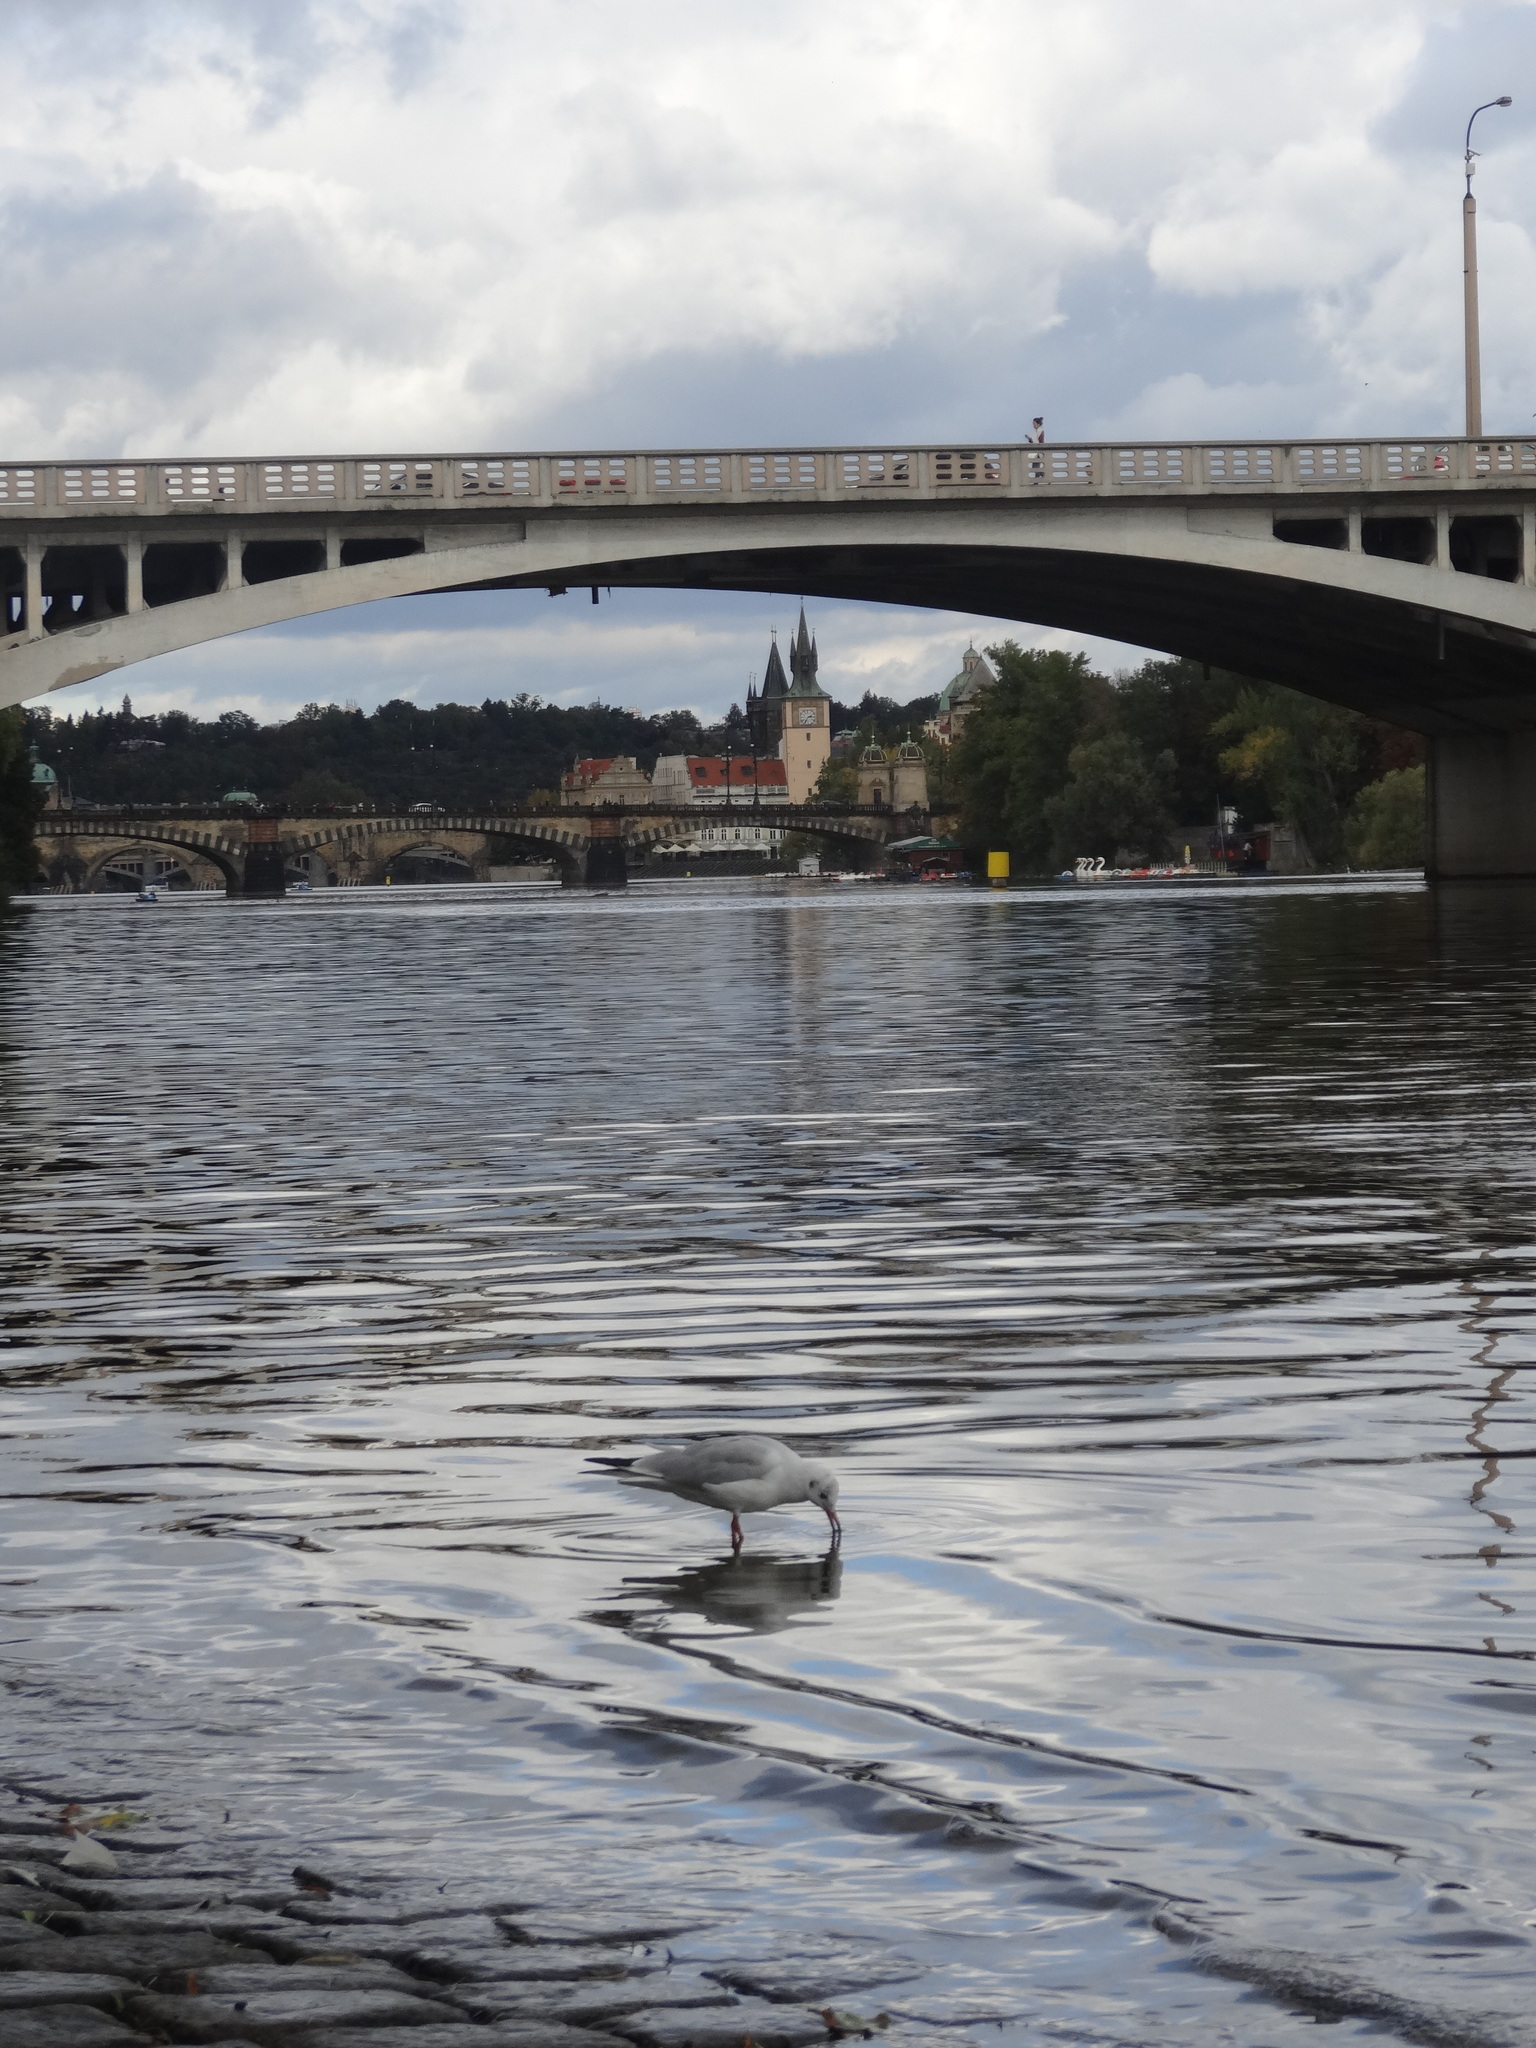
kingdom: Animalia
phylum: Chordata
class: Aves
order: Charadriiformes
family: Laridae
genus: Chroicocephalus
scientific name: Chroicocephalus ridibundus
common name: Black-headed gull
